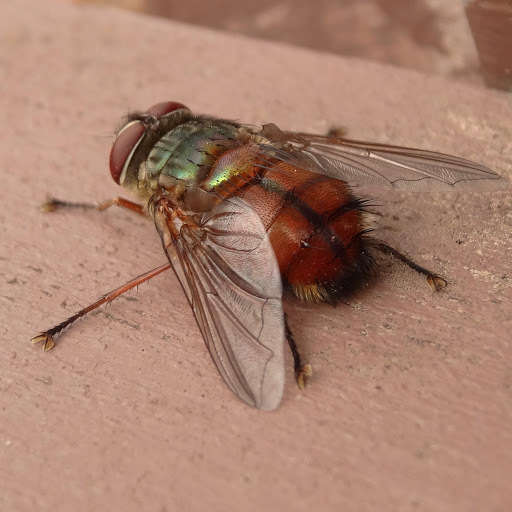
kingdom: Animalia
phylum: Arthropoda
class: Insecta
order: Diptera
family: Tachinidae
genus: Rutilia
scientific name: Rutilia confusa
